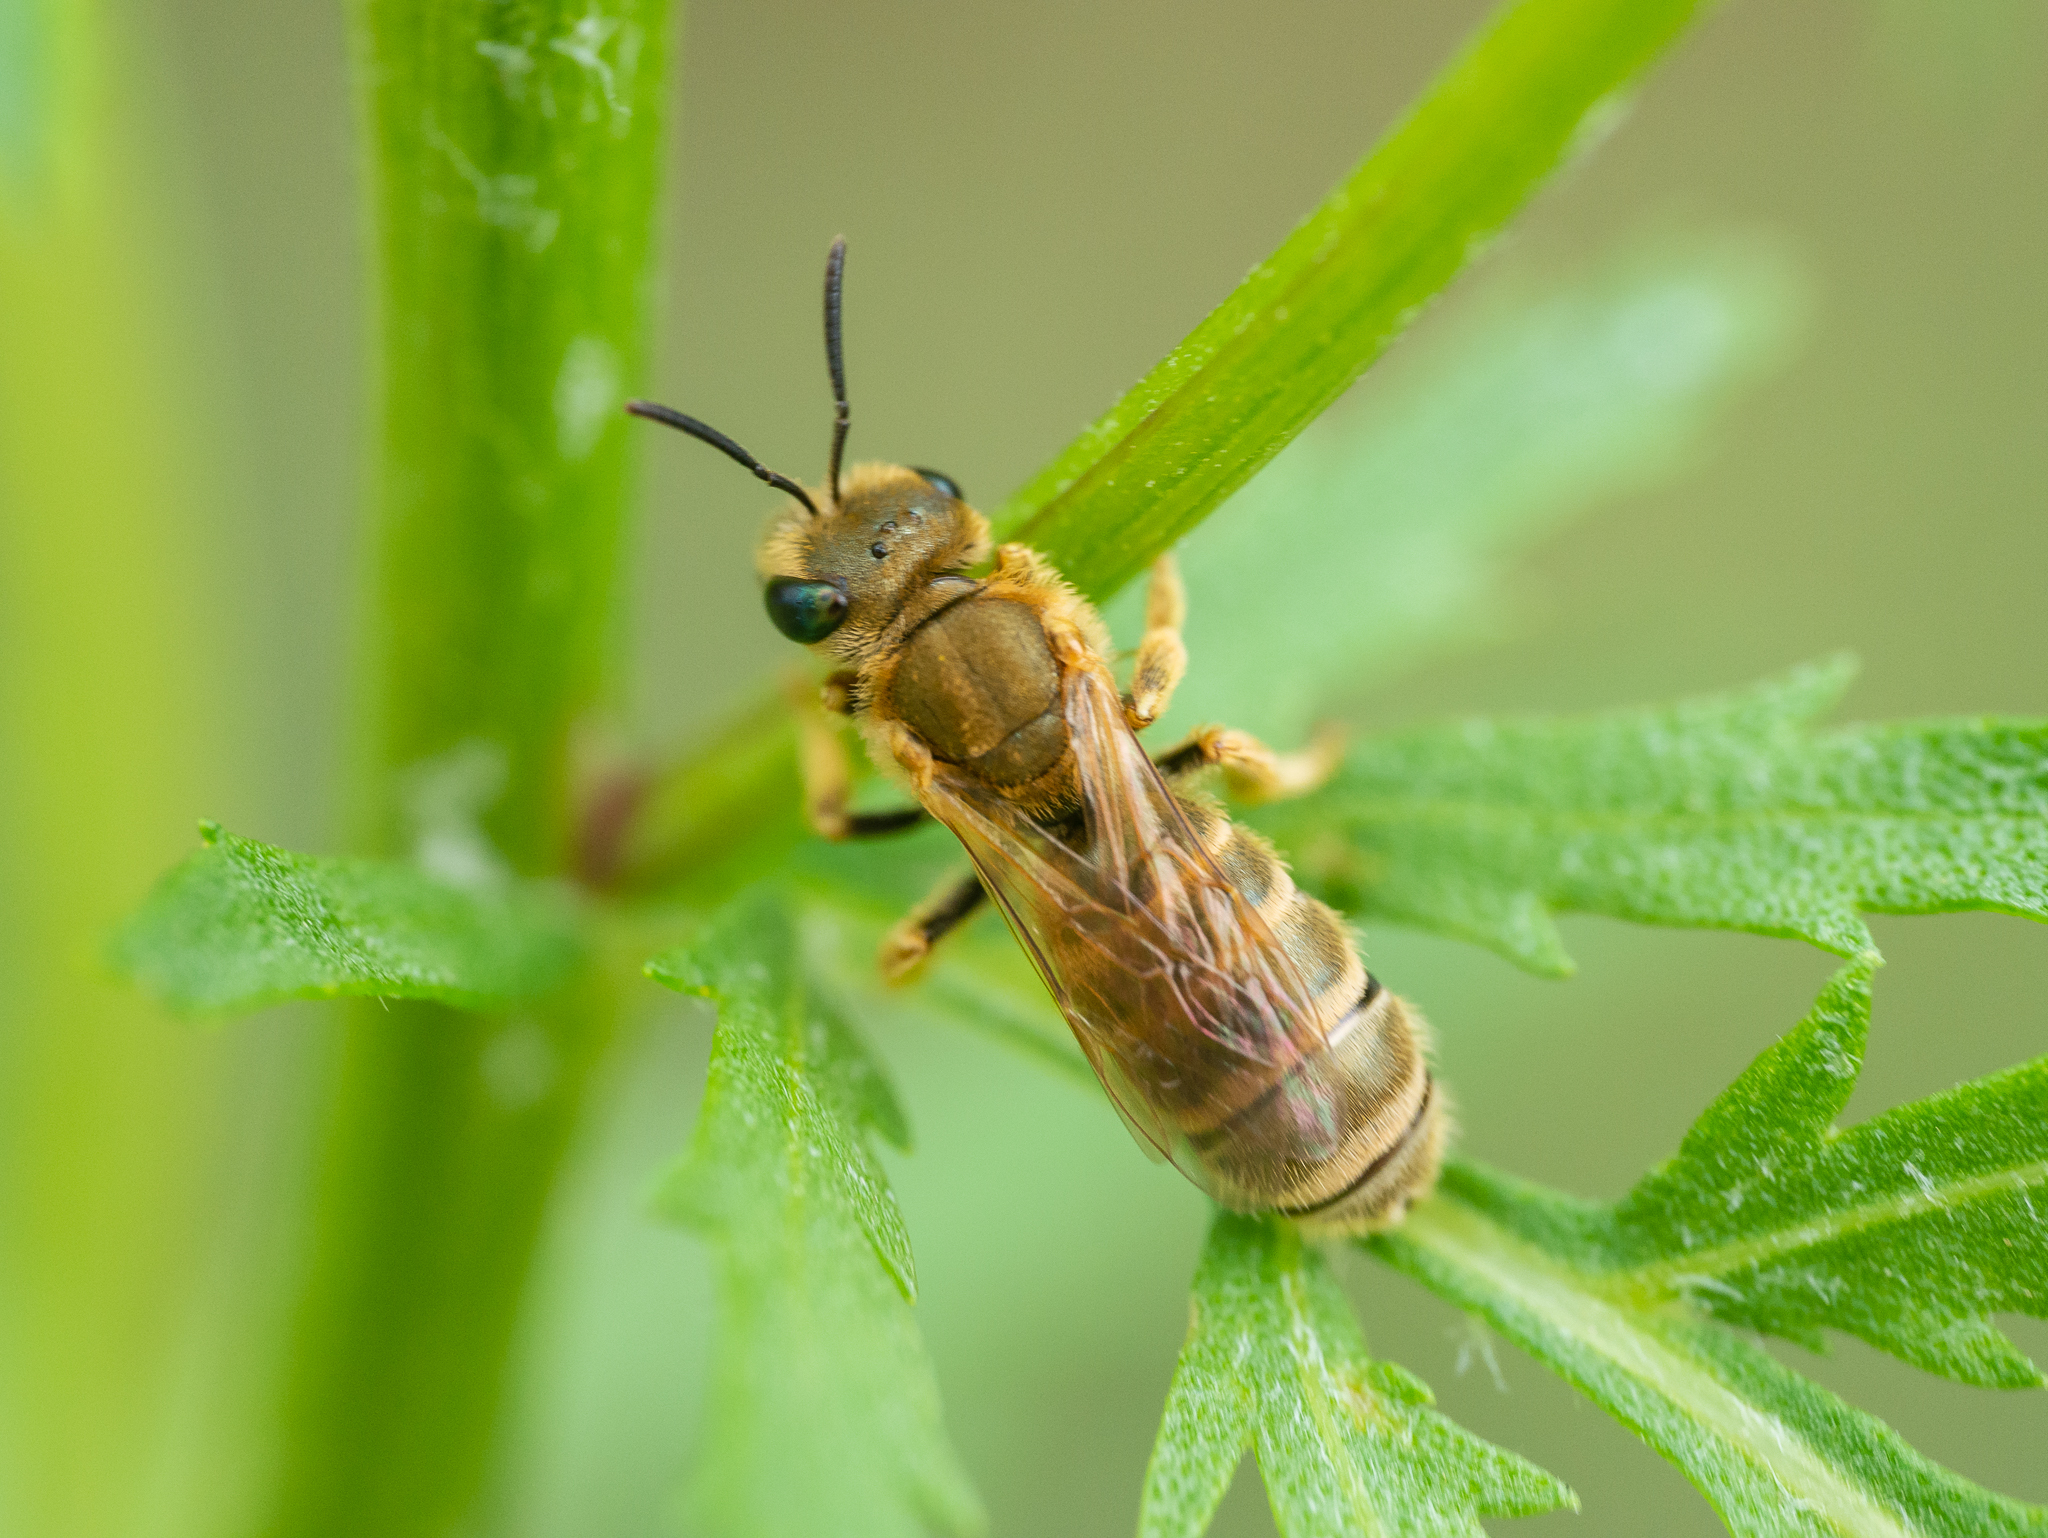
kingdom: Animalia
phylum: Arthropoda
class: Insecta
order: Hymenoptera
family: Halictidae
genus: Halictus
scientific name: Halictus subauratus
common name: Golden furrow bee
